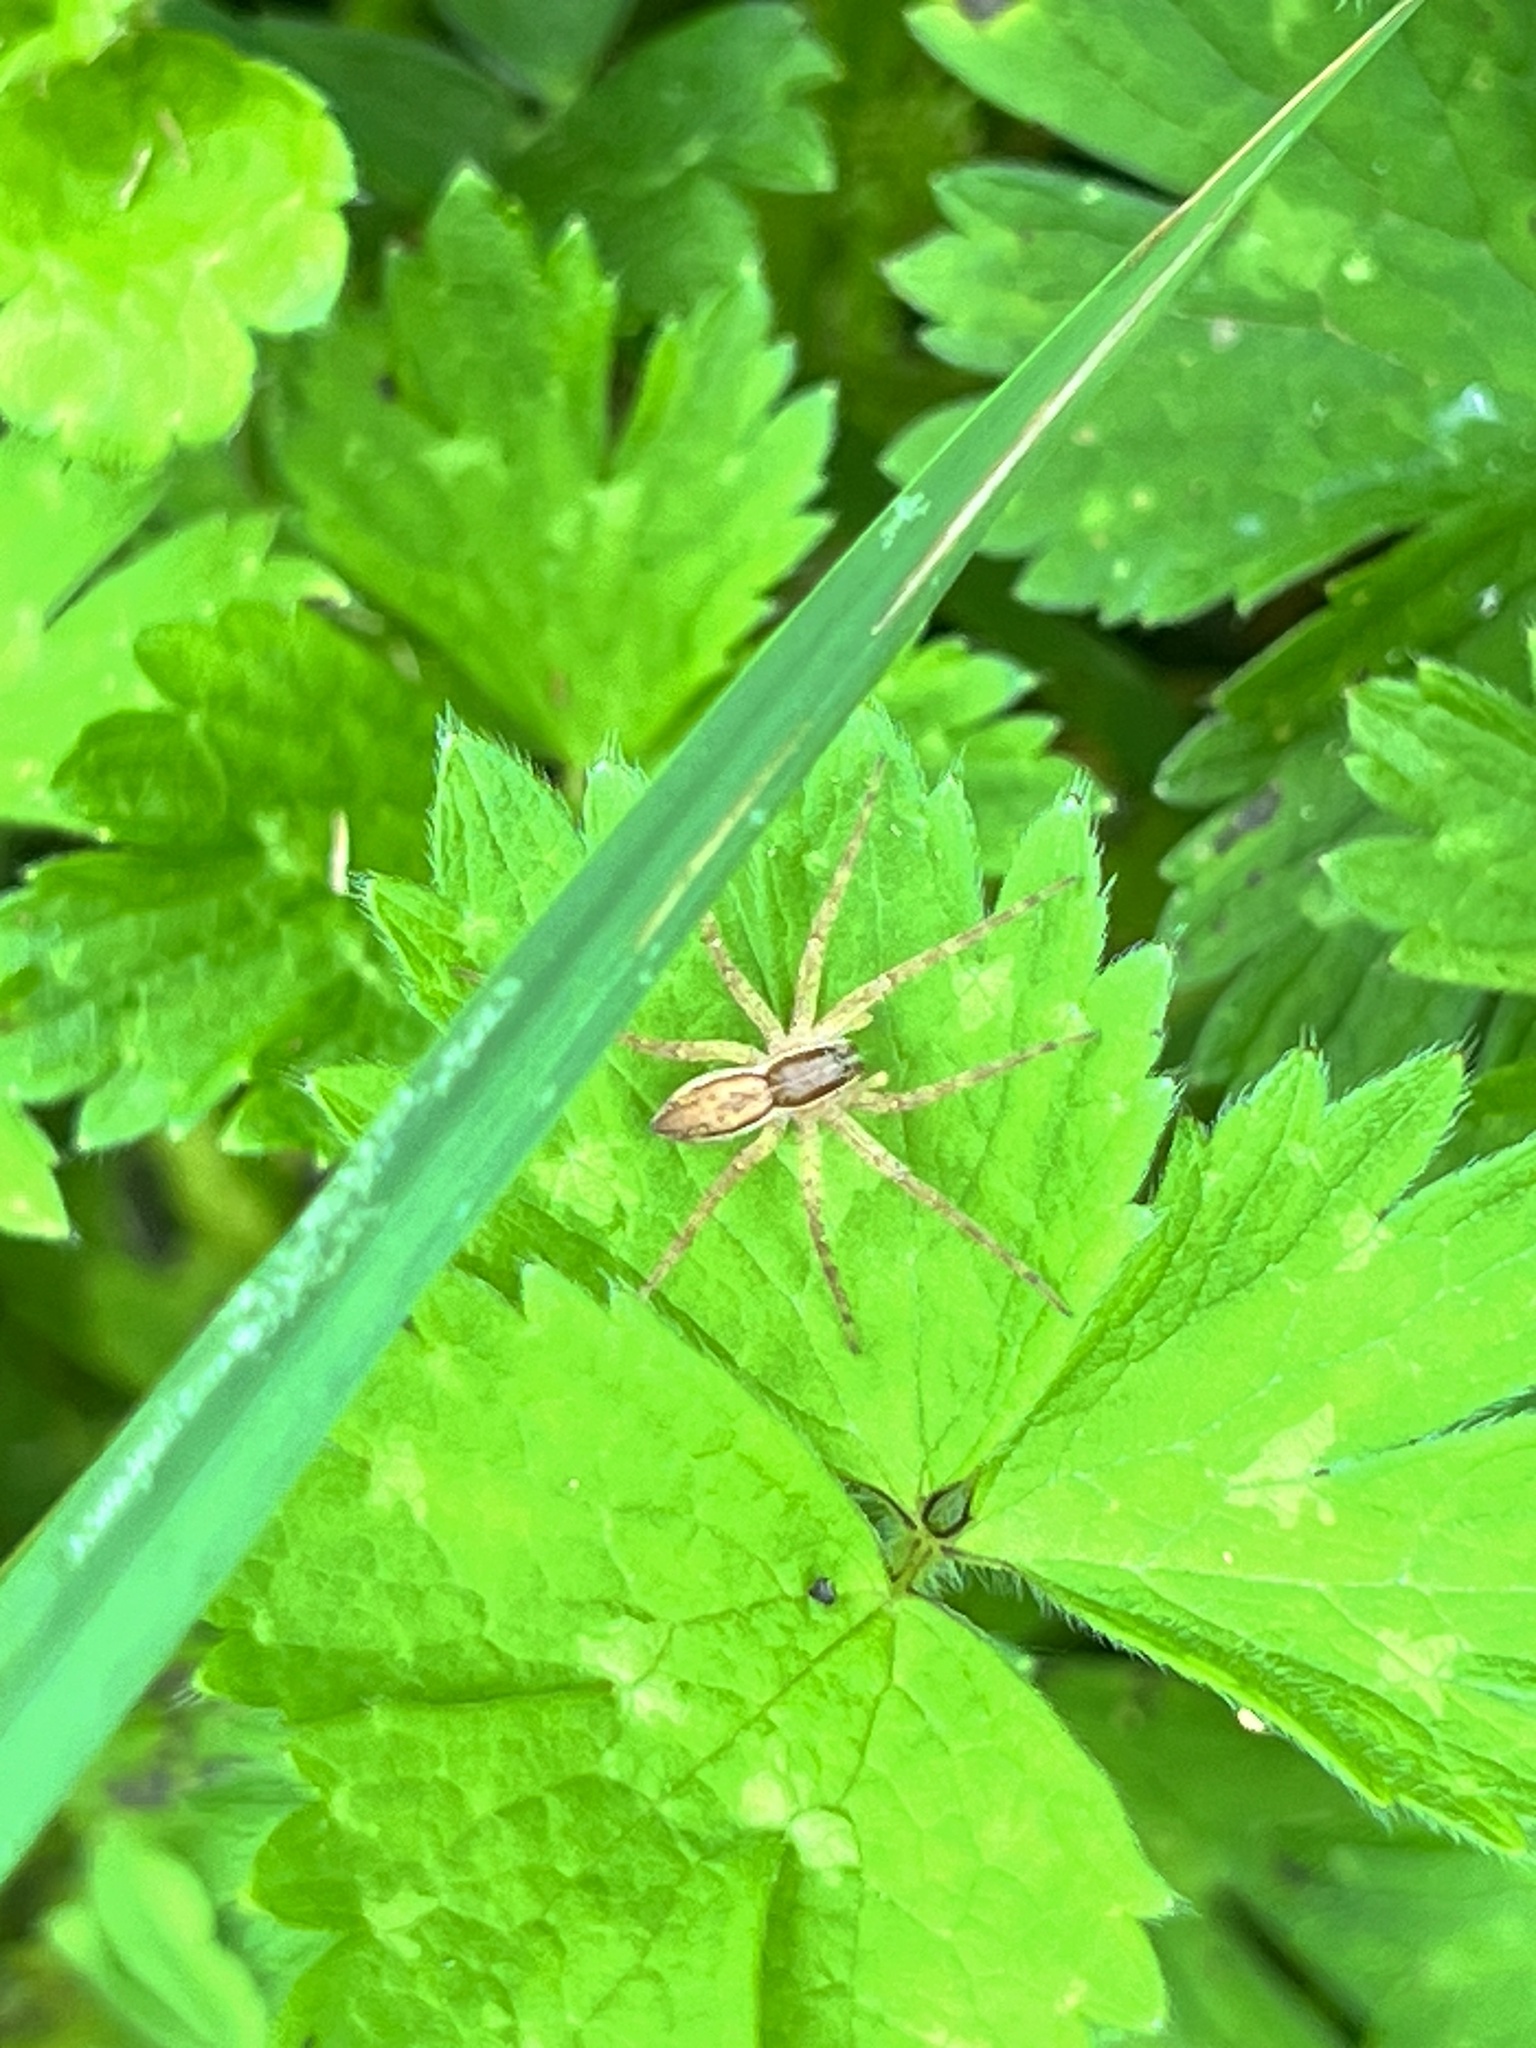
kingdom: Animalia
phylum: Arthropoda
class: Arachnida
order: Araneae
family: Pisauridae
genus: Dolomedes
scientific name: Dolomedes minor
